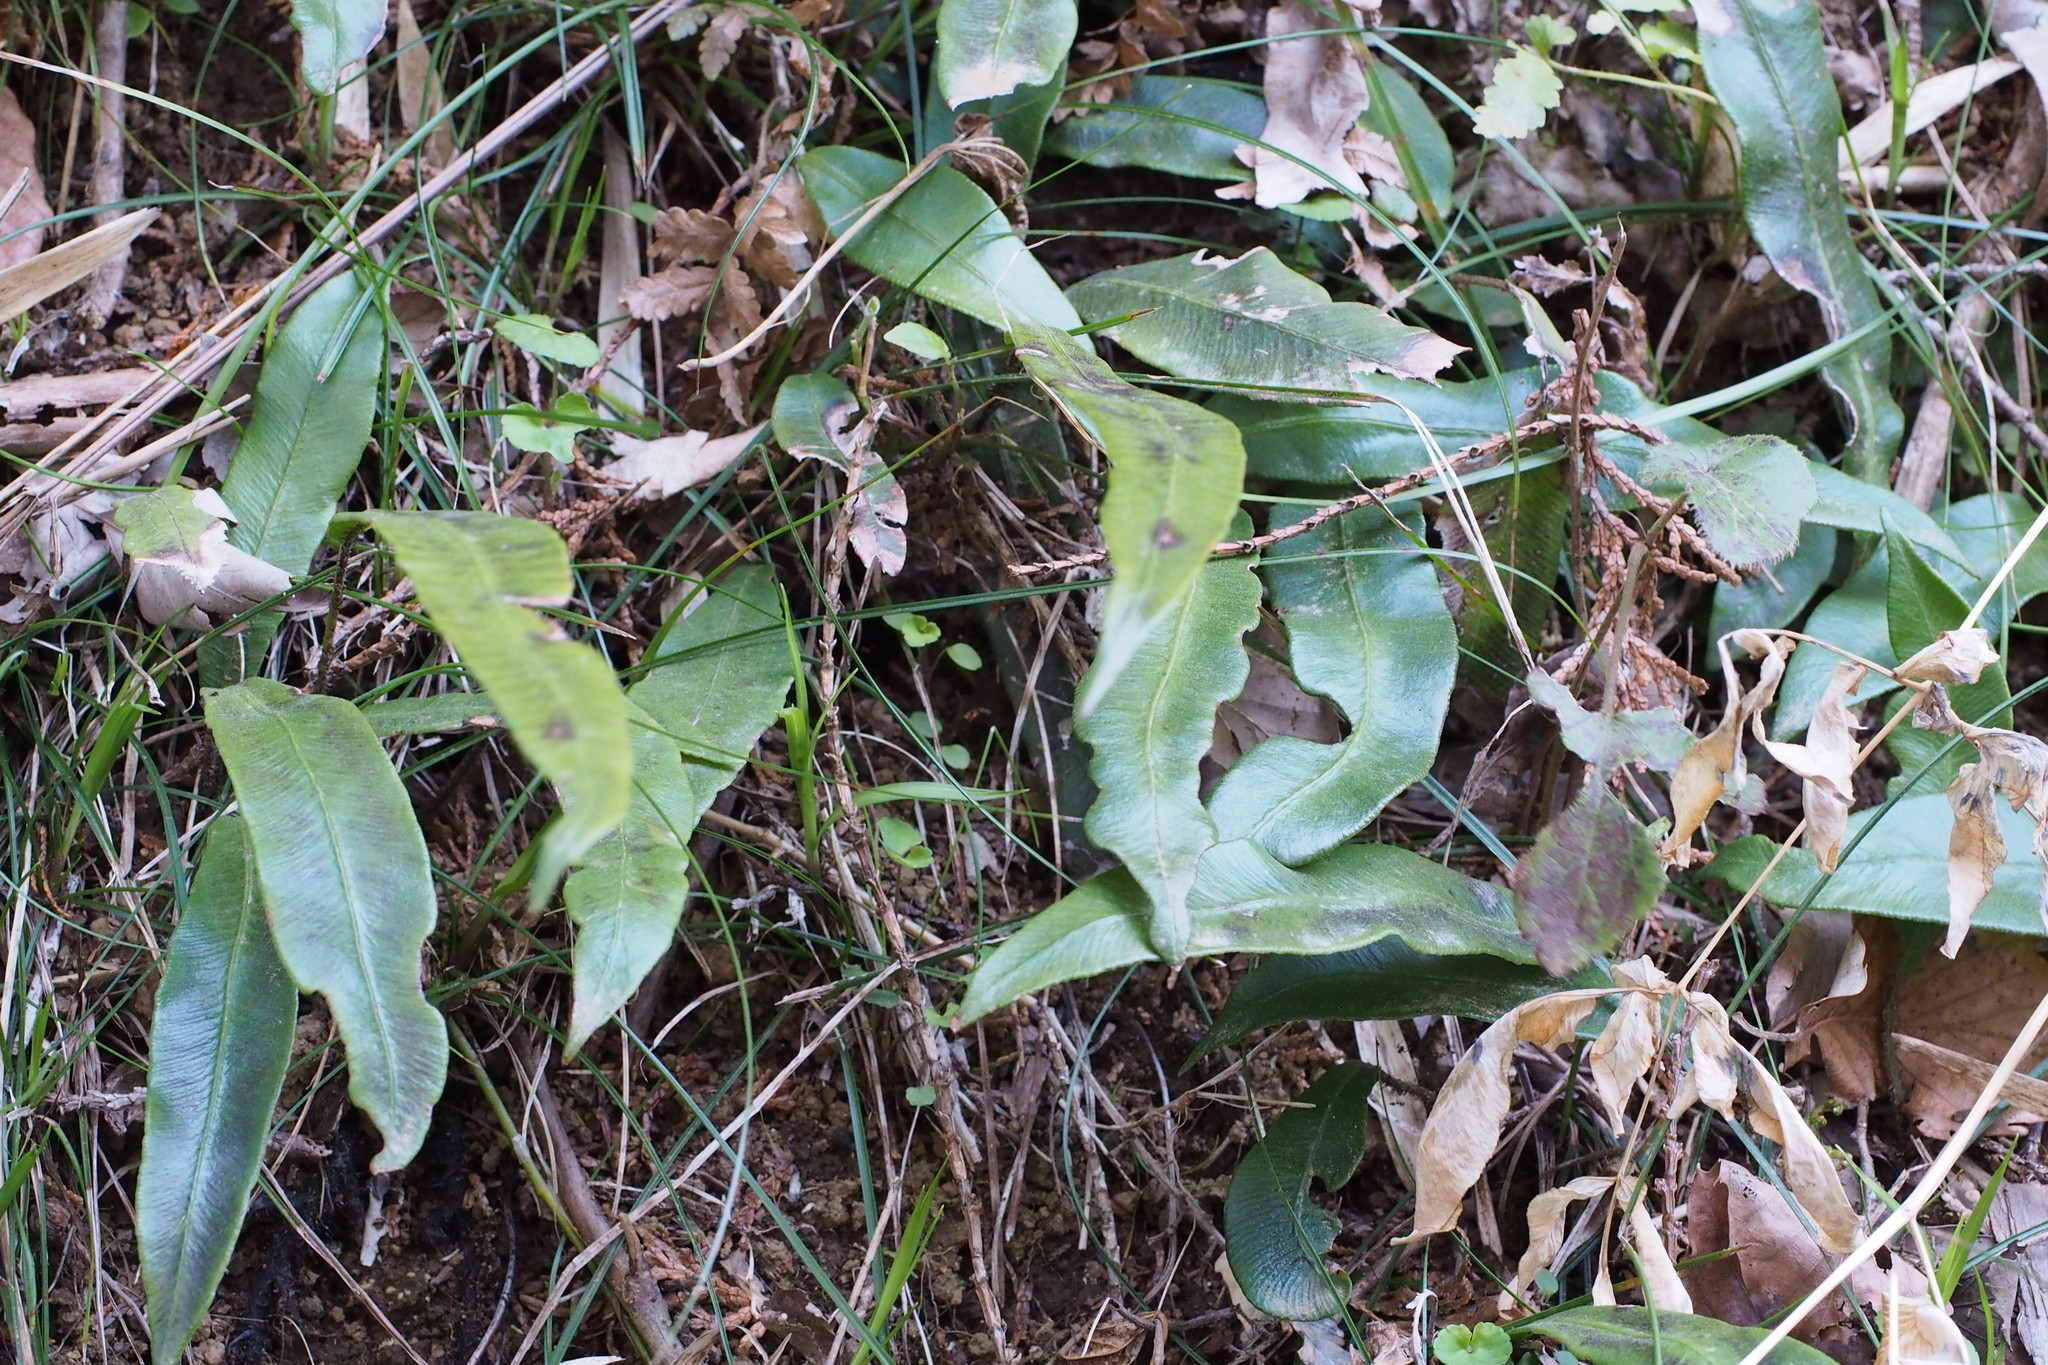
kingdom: Plantae
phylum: Tracheophyta
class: Polypodiopsida
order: Polypodiales
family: Athyriaceae
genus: Deparia
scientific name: Deparia lancea
